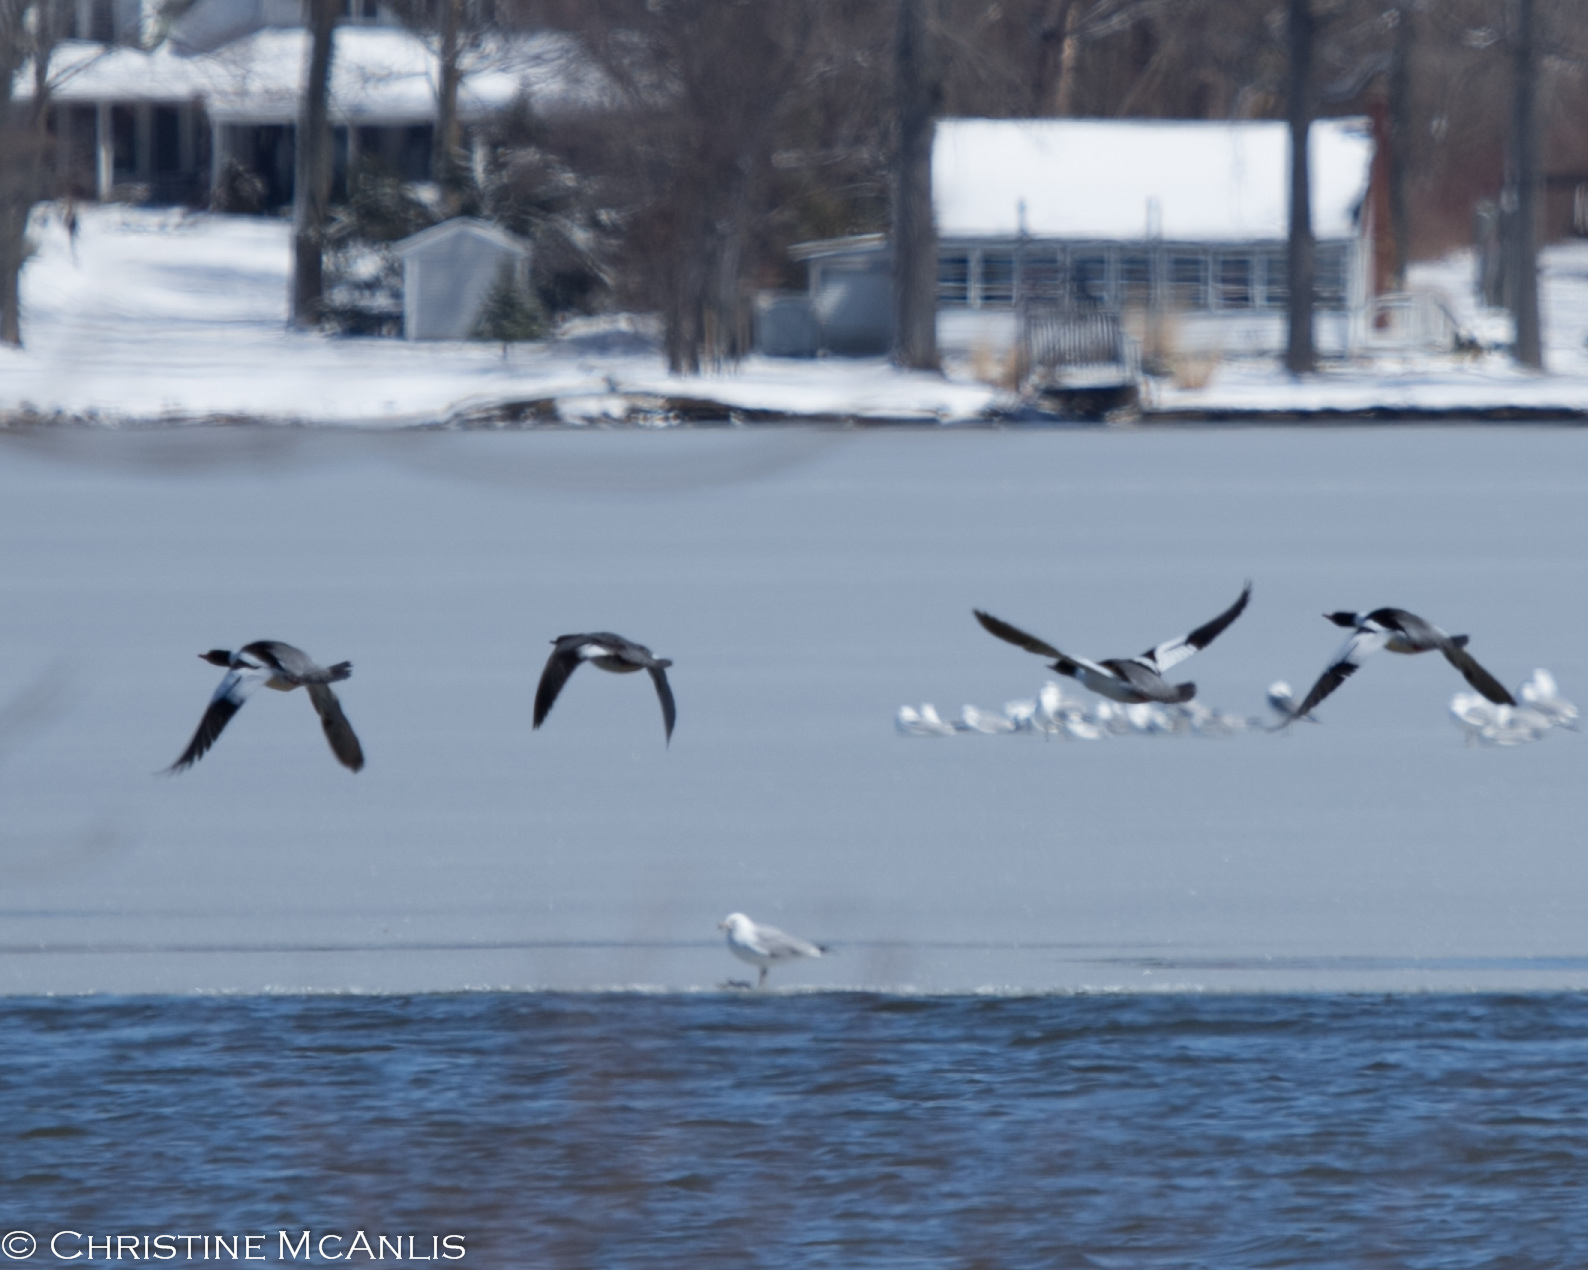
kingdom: Animalia
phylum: Chordata
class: Aves
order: Anseriformes
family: Anatidae
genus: Mergus
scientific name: Mergus merganser
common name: Common merganser
